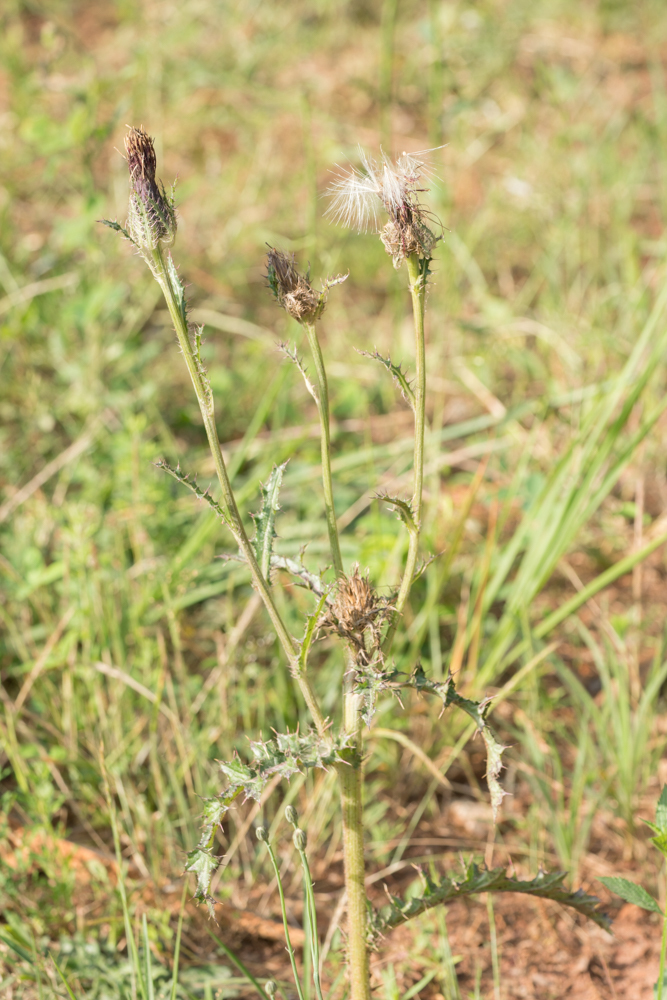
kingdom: Plantae
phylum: Tracheophyta
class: Magnoliopsida
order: Asterales
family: Asteraceae
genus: Cirsium
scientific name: Cirsium horridulum
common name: Bristly thistle
